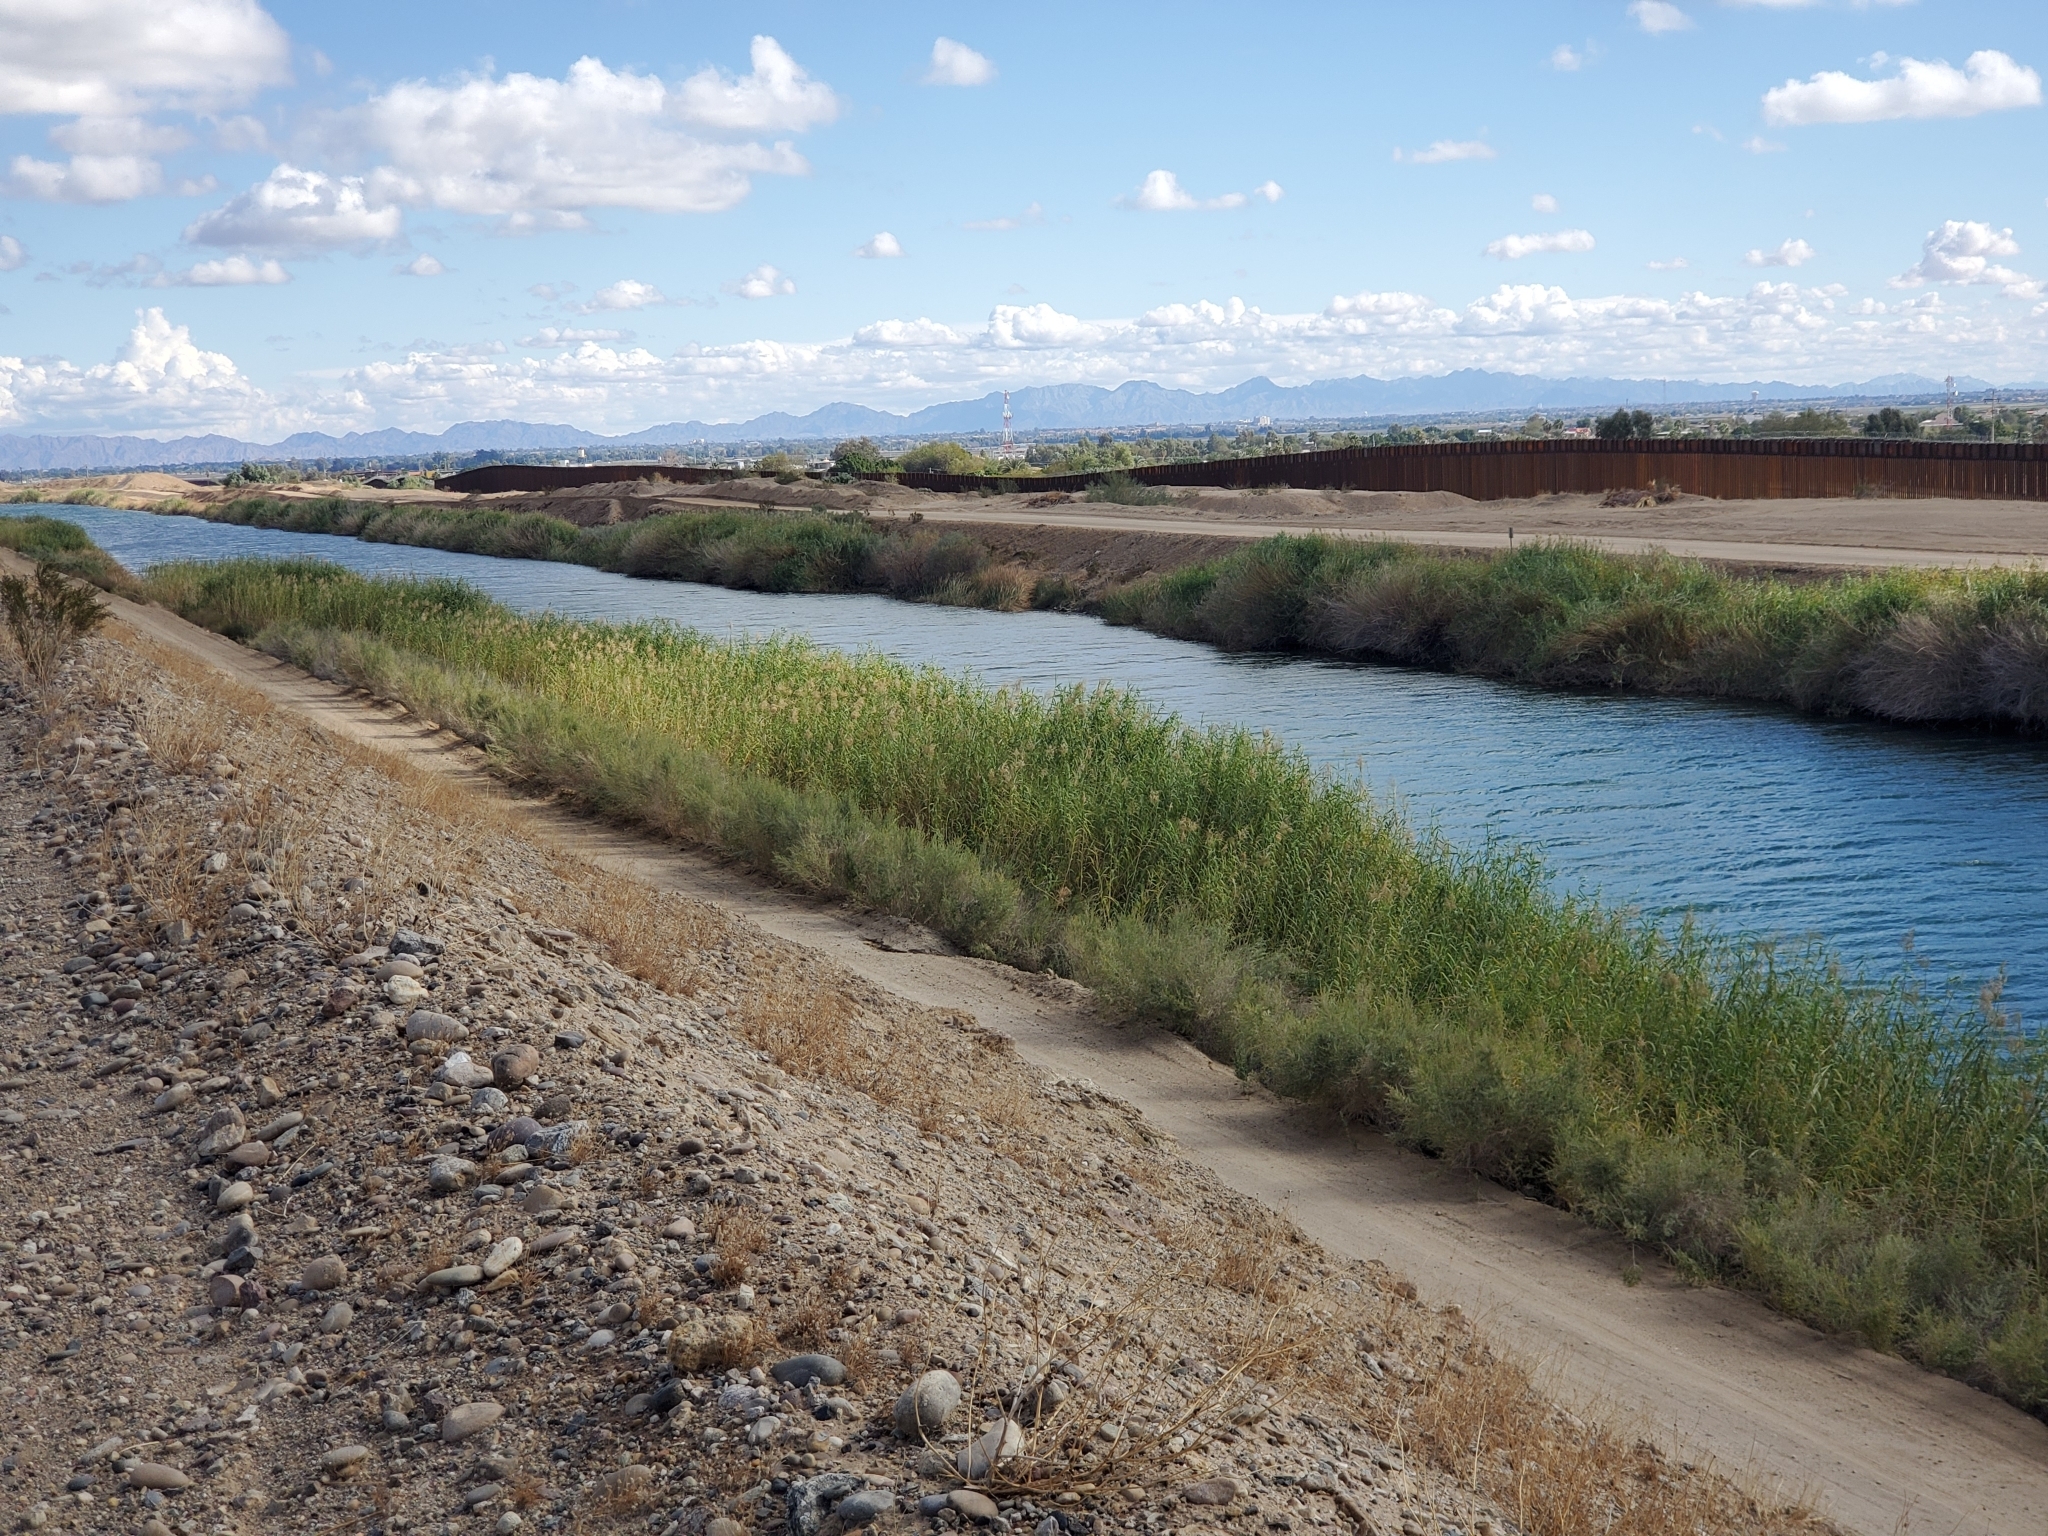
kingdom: Plantae
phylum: Tracheophyta
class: Liliopsida
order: Poales
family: Poaceae
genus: Phragmites
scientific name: Phragmites australis
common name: Common reed
